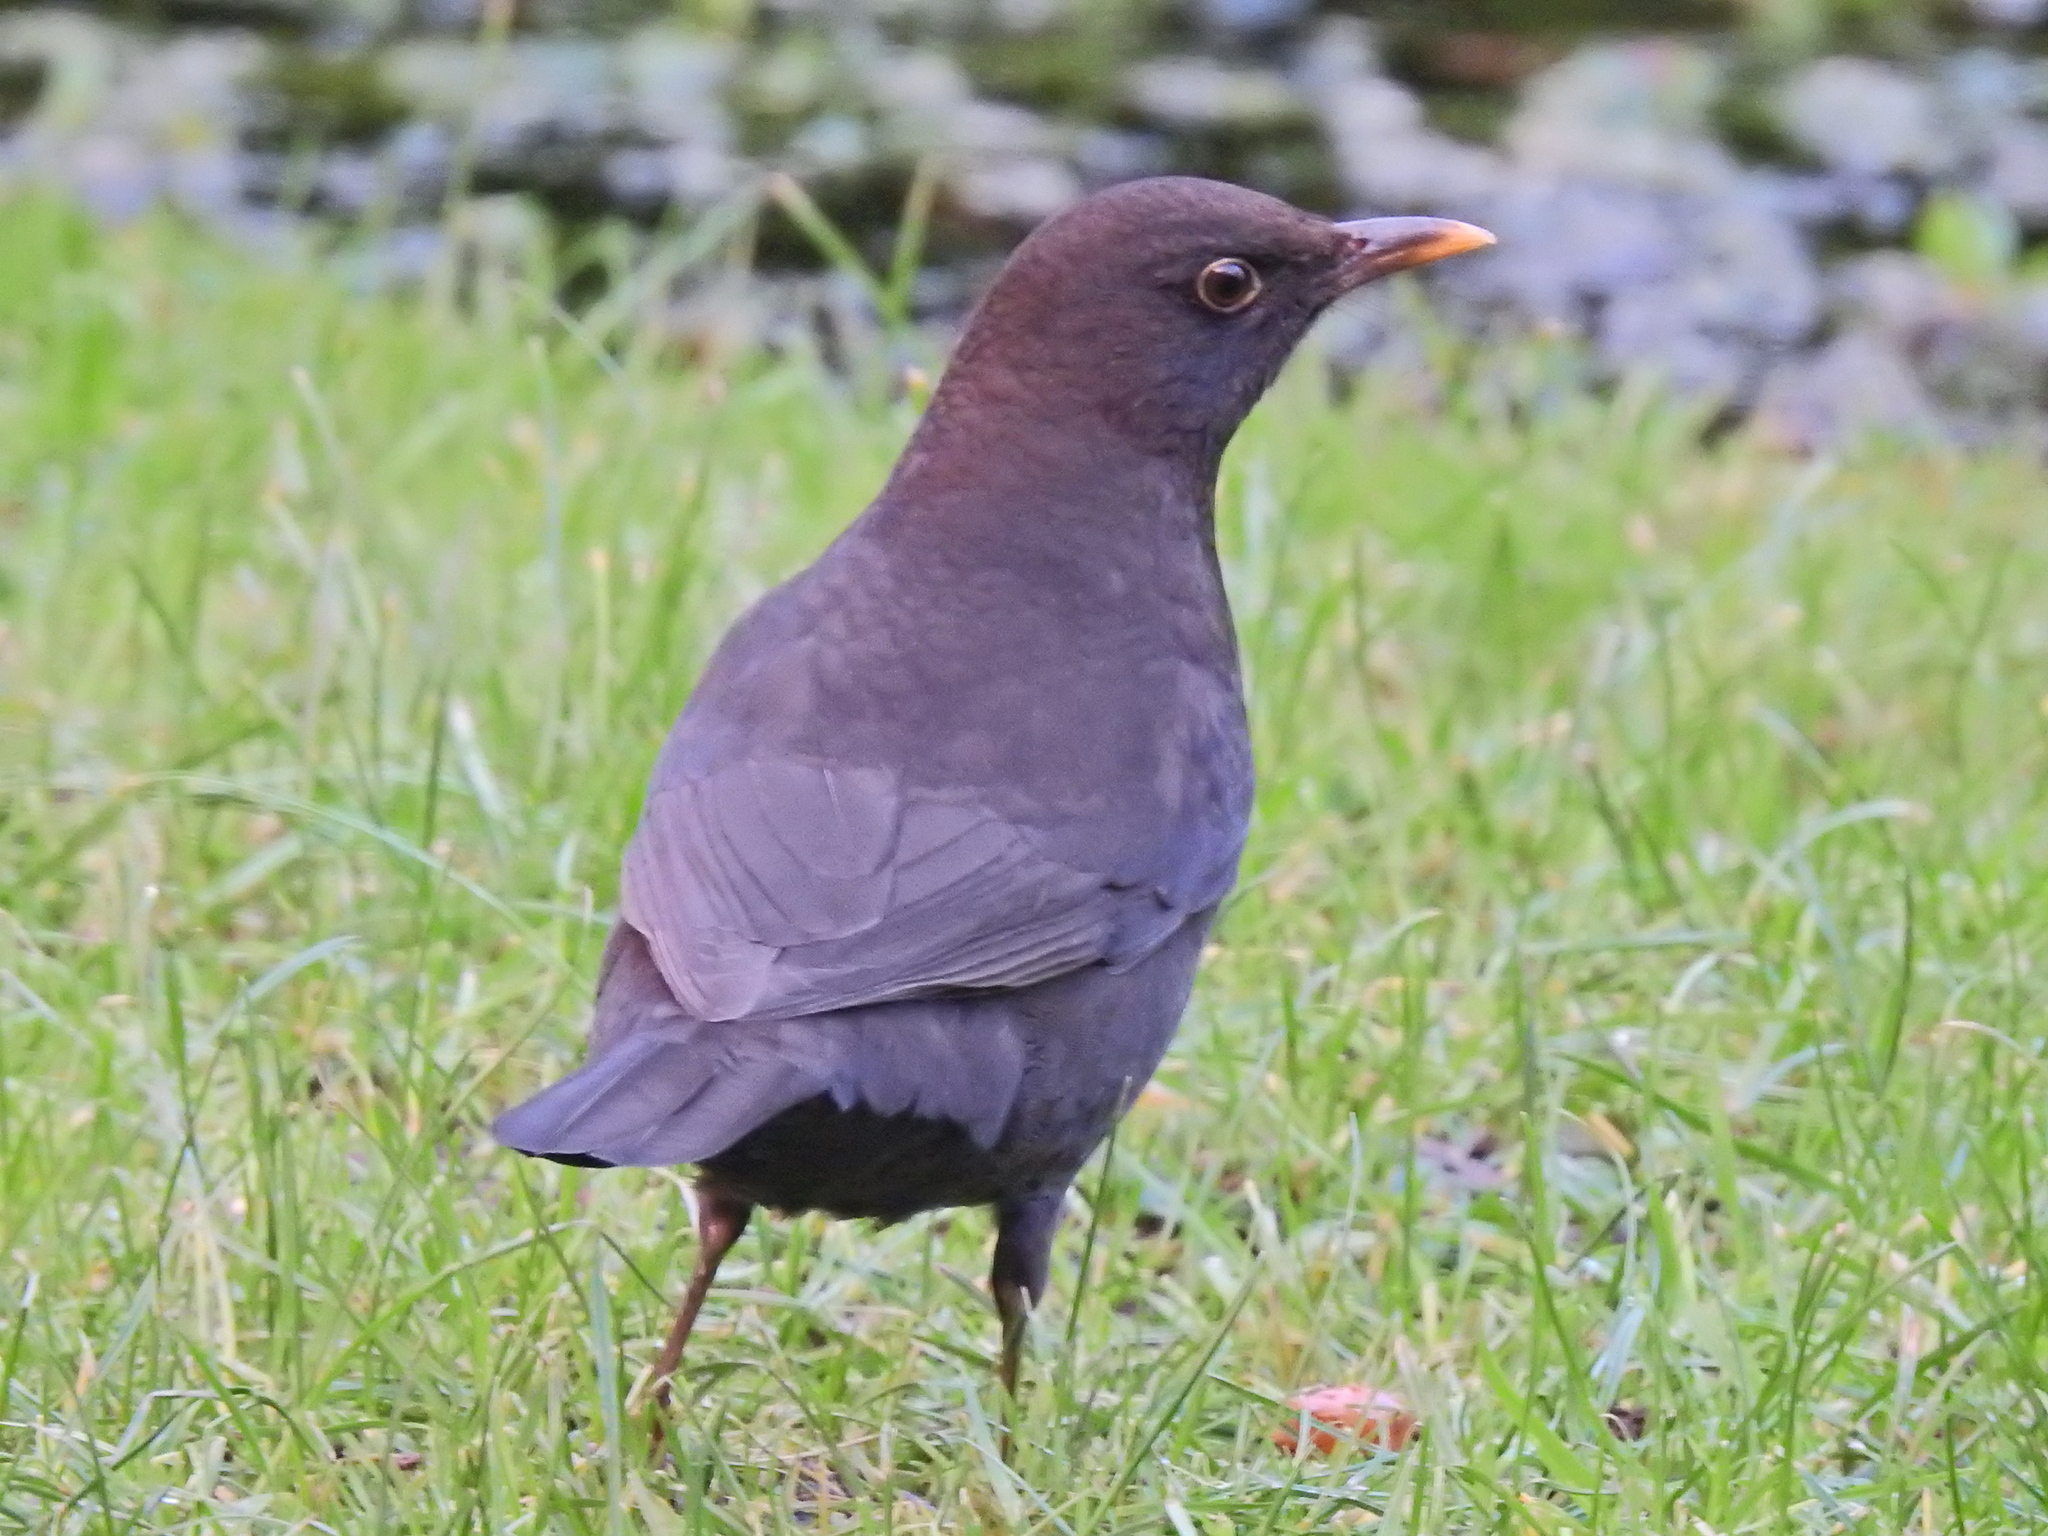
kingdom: Animalia
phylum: Chordata
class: Aves
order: Passeriformes
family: Turdidae
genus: Turdus
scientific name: Turdus merula
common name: Common blackbird
